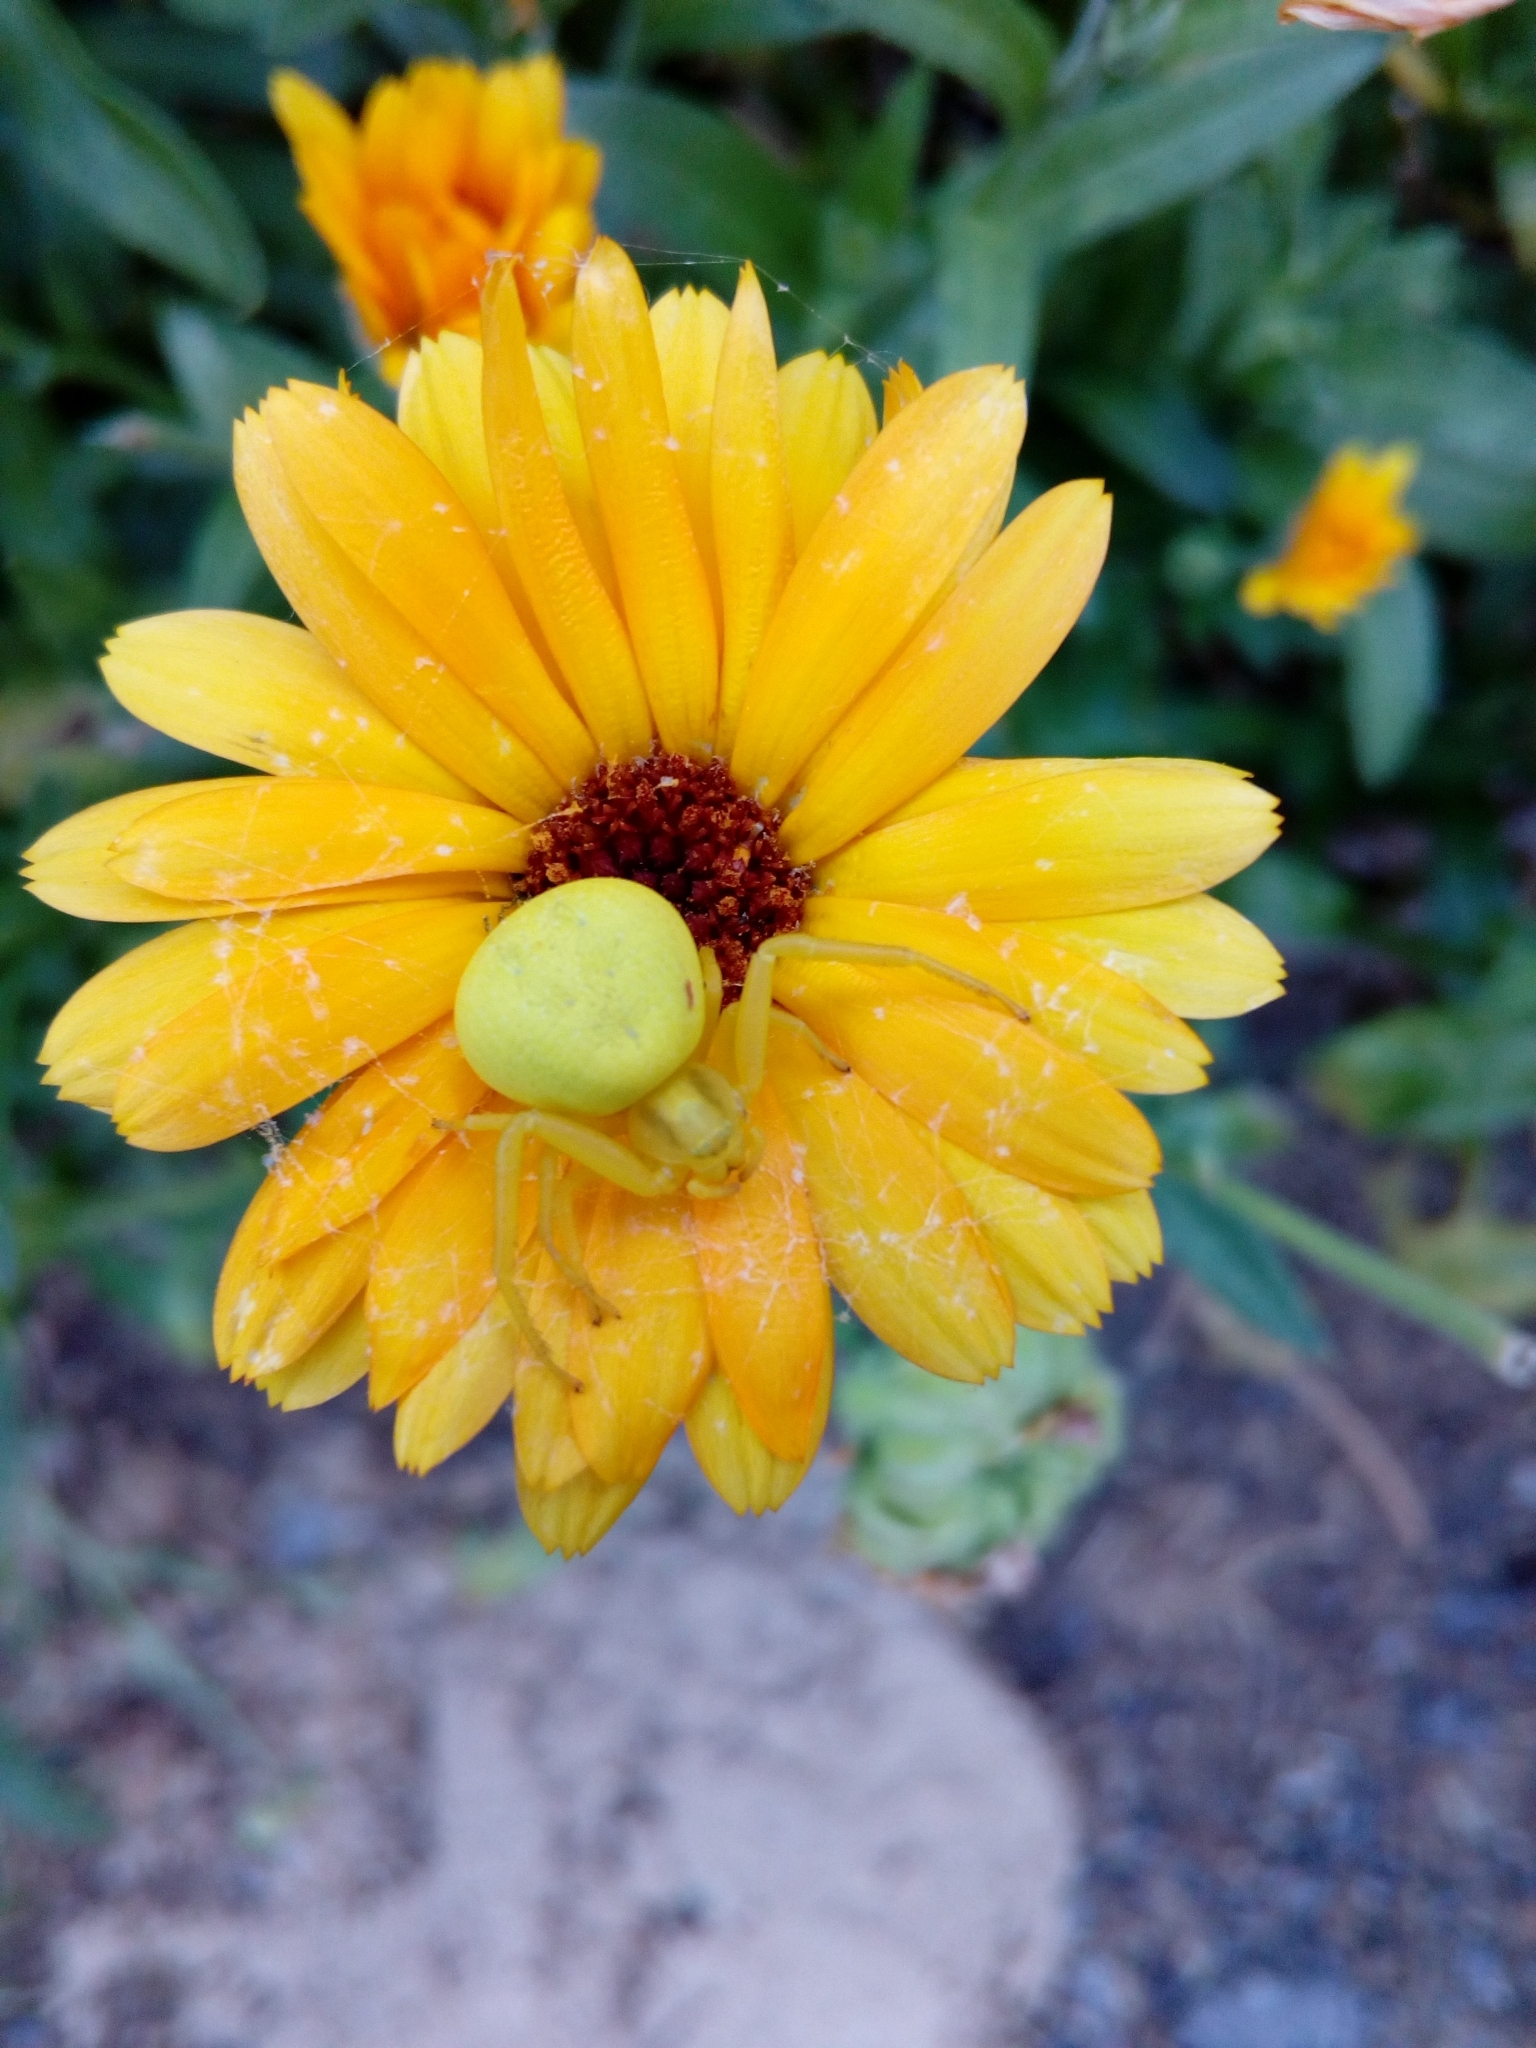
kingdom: Animalia
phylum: Arthropoda
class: Arachnida
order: Araneae
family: Thomisidae
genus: Misumena
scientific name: Misumena vatia
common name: Goldenrod crab spider
